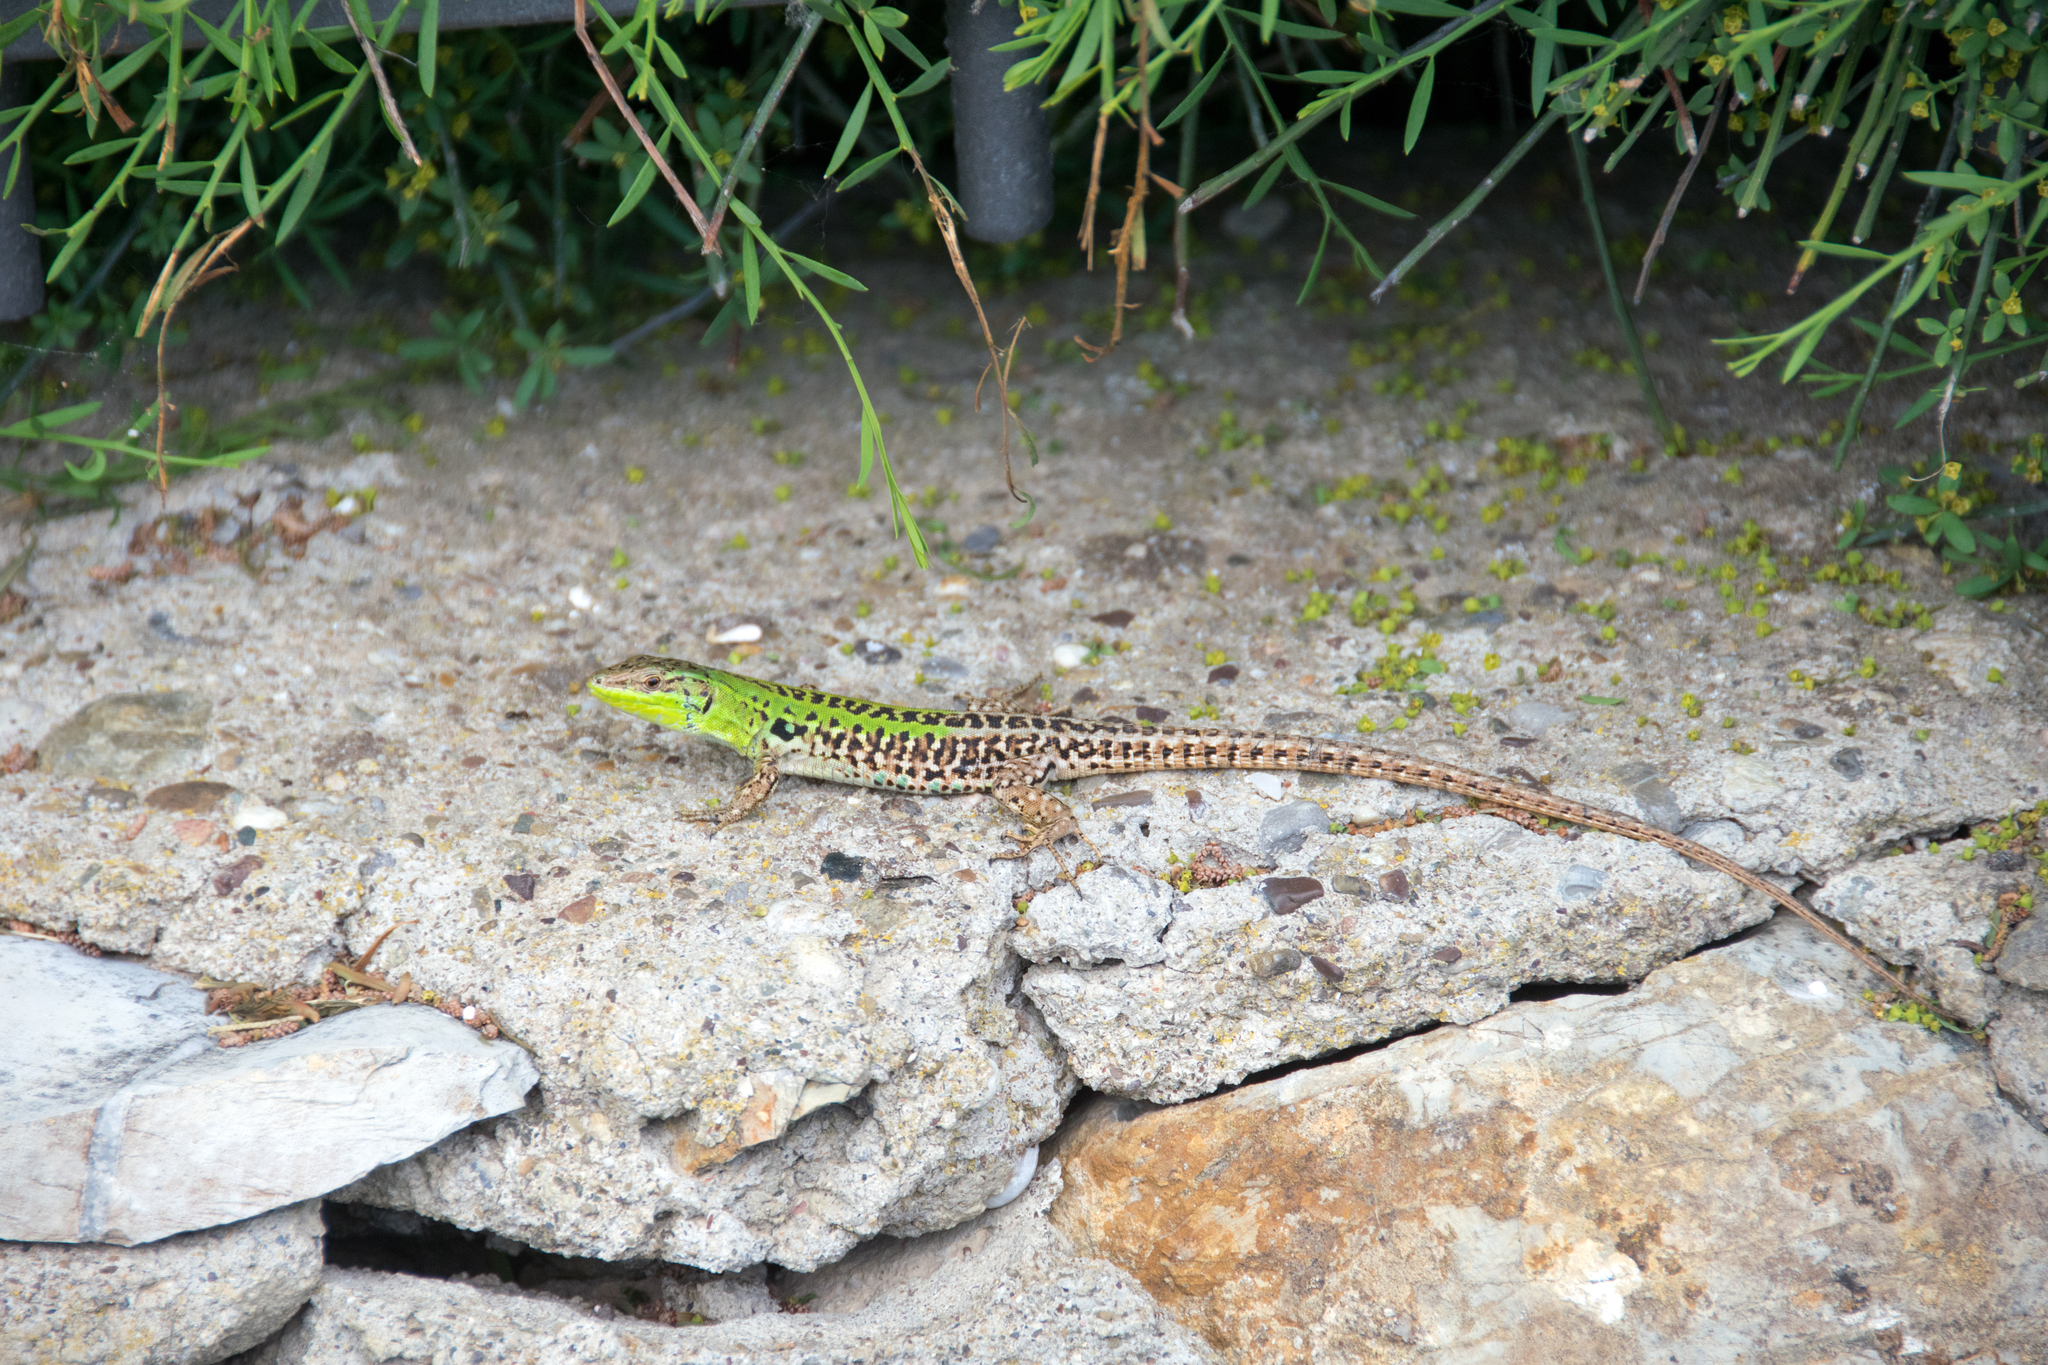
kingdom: Animalia
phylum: Chordata
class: Squamata
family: Lacertidae
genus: Podarcis
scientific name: Podarcis siculus
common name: Italian wall lizard
